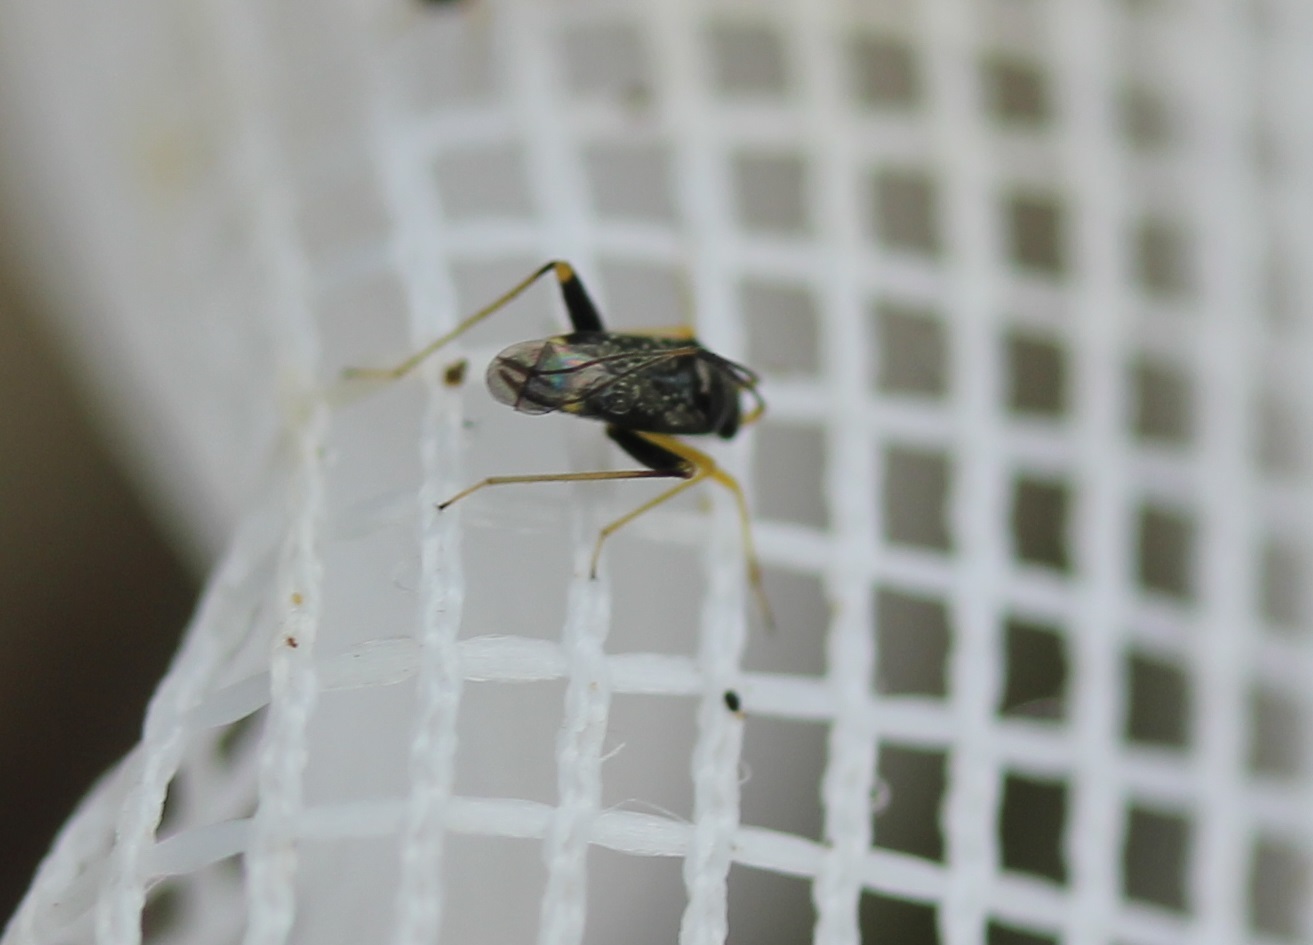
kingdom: Animalia
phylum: Arthropoda
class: Insecta
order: Hemiptera
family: Miridae
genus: Microtechnites
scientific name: Microtechnites bractatus
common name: Garden fleahopper
